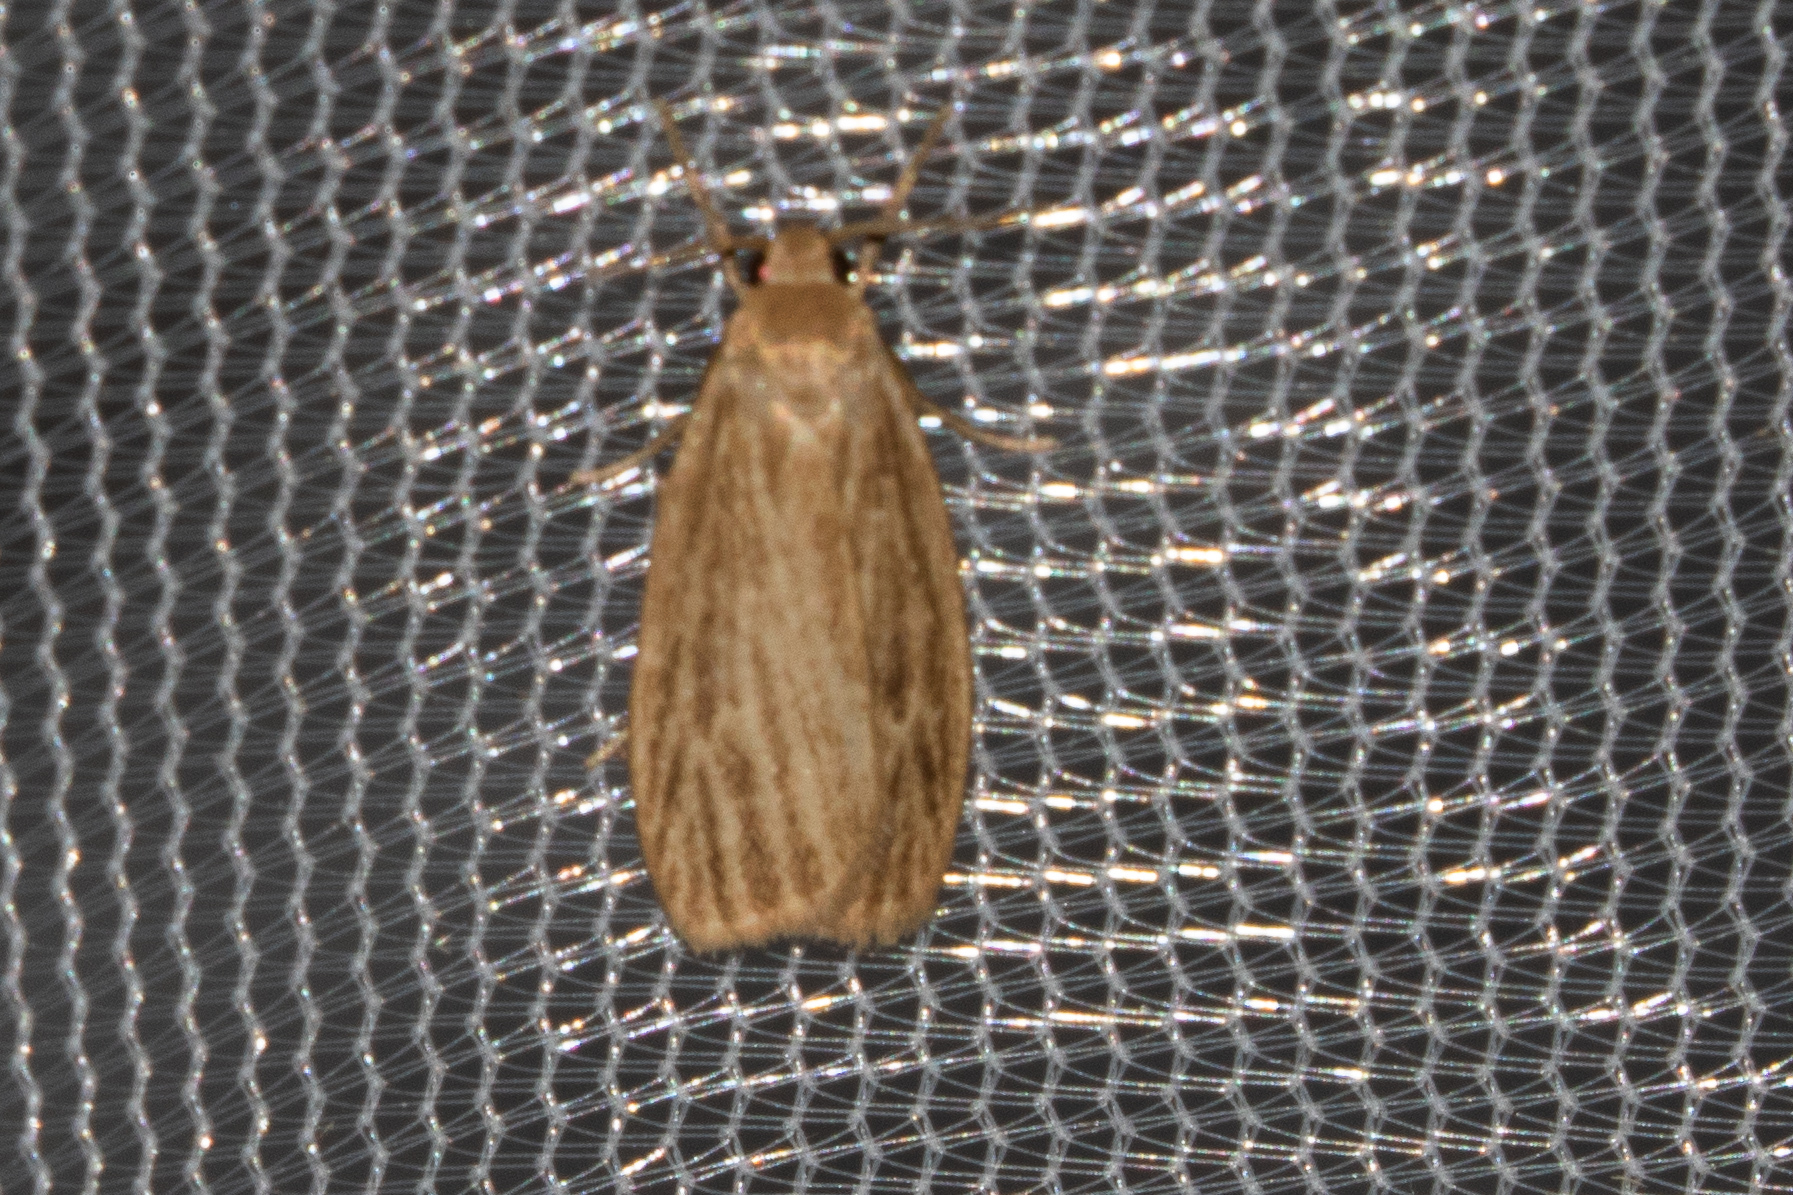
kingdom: Animalia
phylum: Arthropoda
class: Insecta
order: Lepidoptera
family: Erebidae
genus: Crambidia
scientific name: Crambidia pallida
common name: Pale lichen moth
